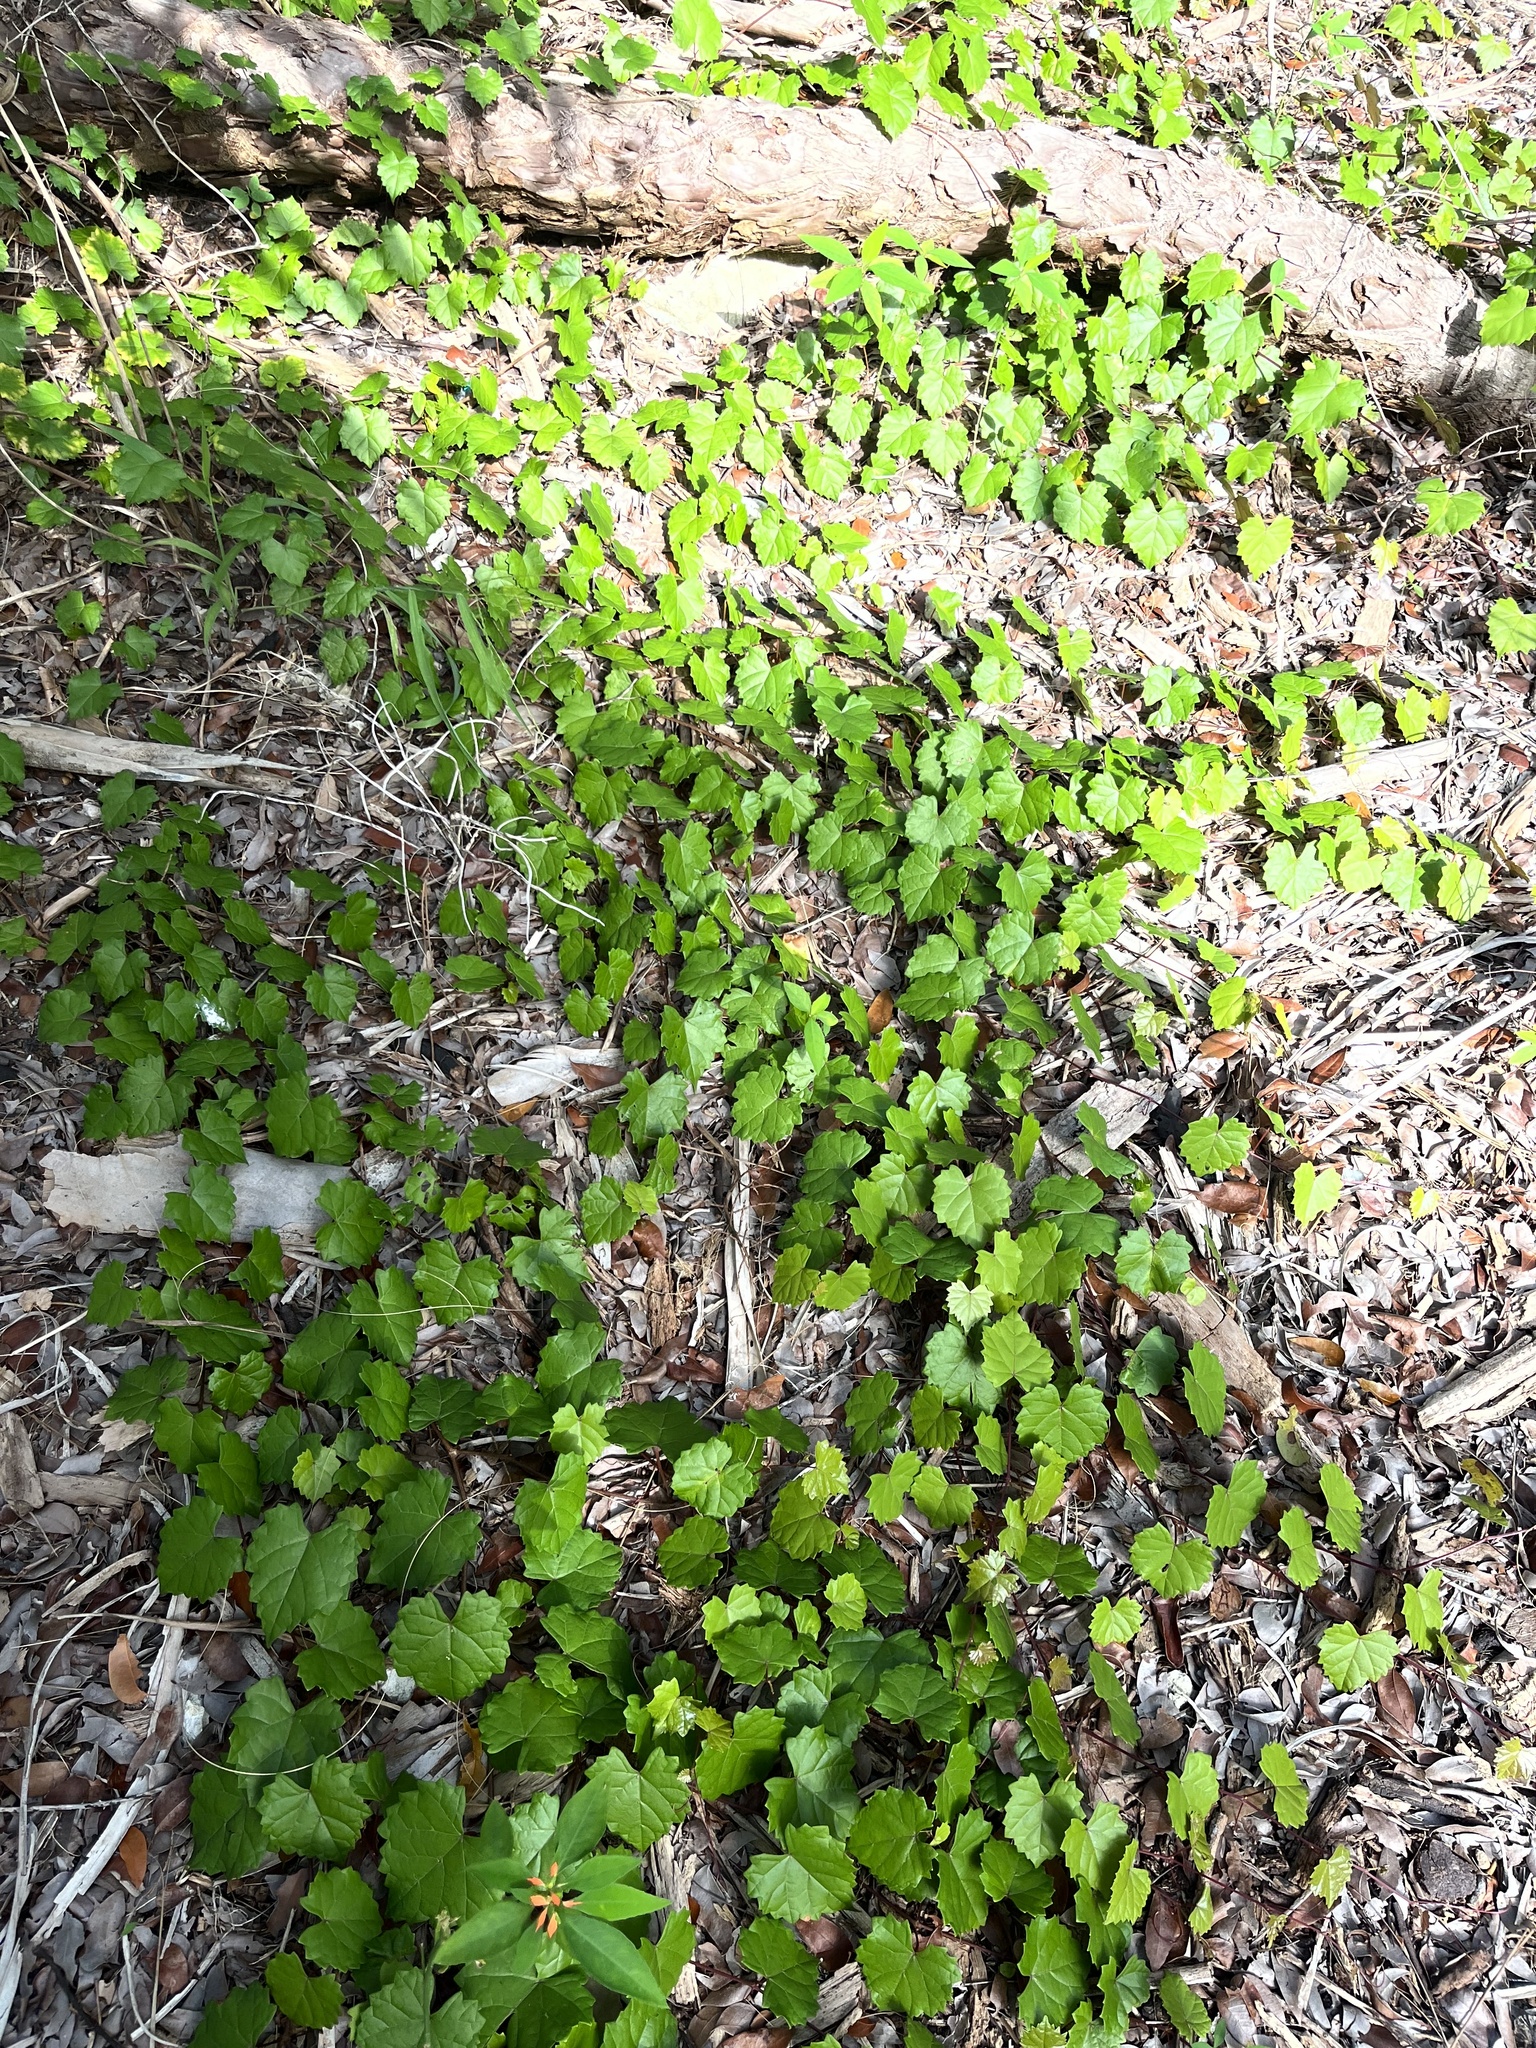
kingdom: Plantae
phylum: Tracheophyta
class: Magnoliopsida
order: Malpighiales
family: Euphorbiaceae
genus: Euphorbia
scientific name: Euphorbia heterophylla
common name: Mexican fireplant
